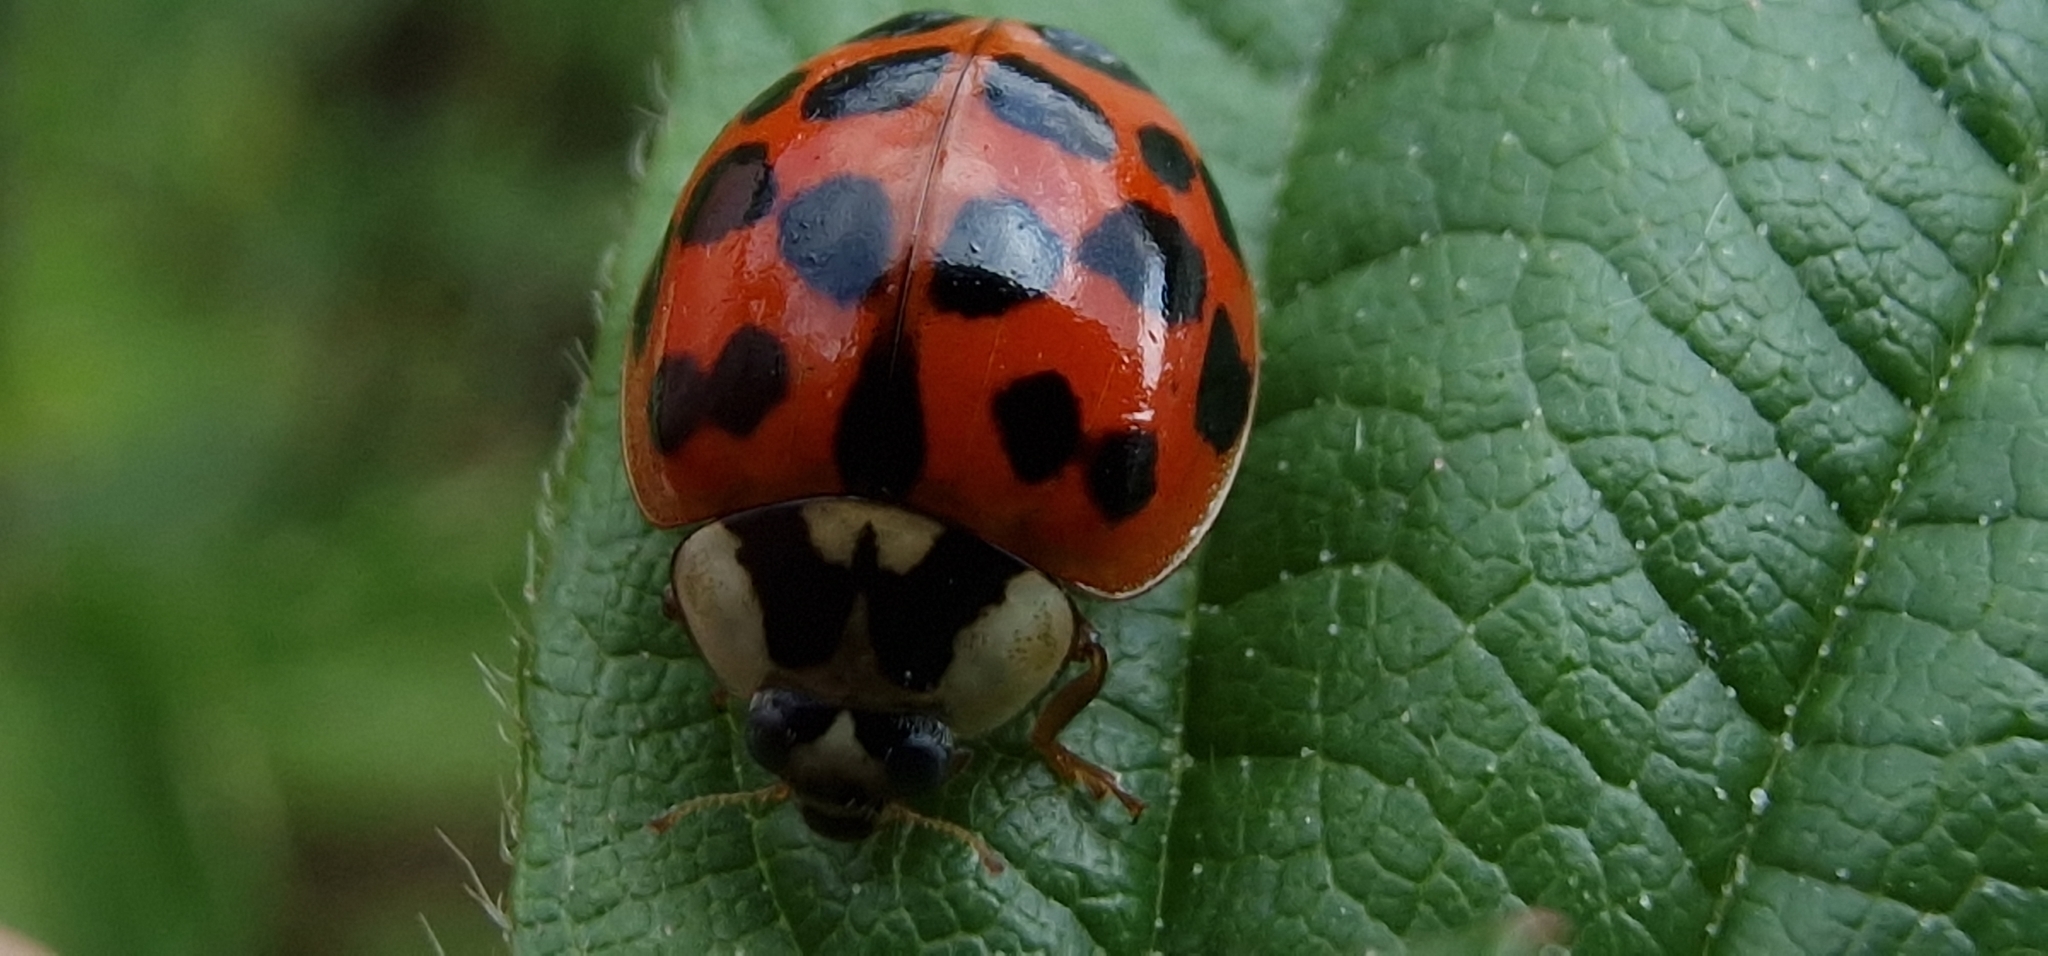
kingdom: Animalia
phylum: Arthropoda
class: Insecta
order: Coleoptera
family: Coccinellidae
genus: Harmonia
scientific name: Harmonia axyridis
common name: Harlequin ladybird
